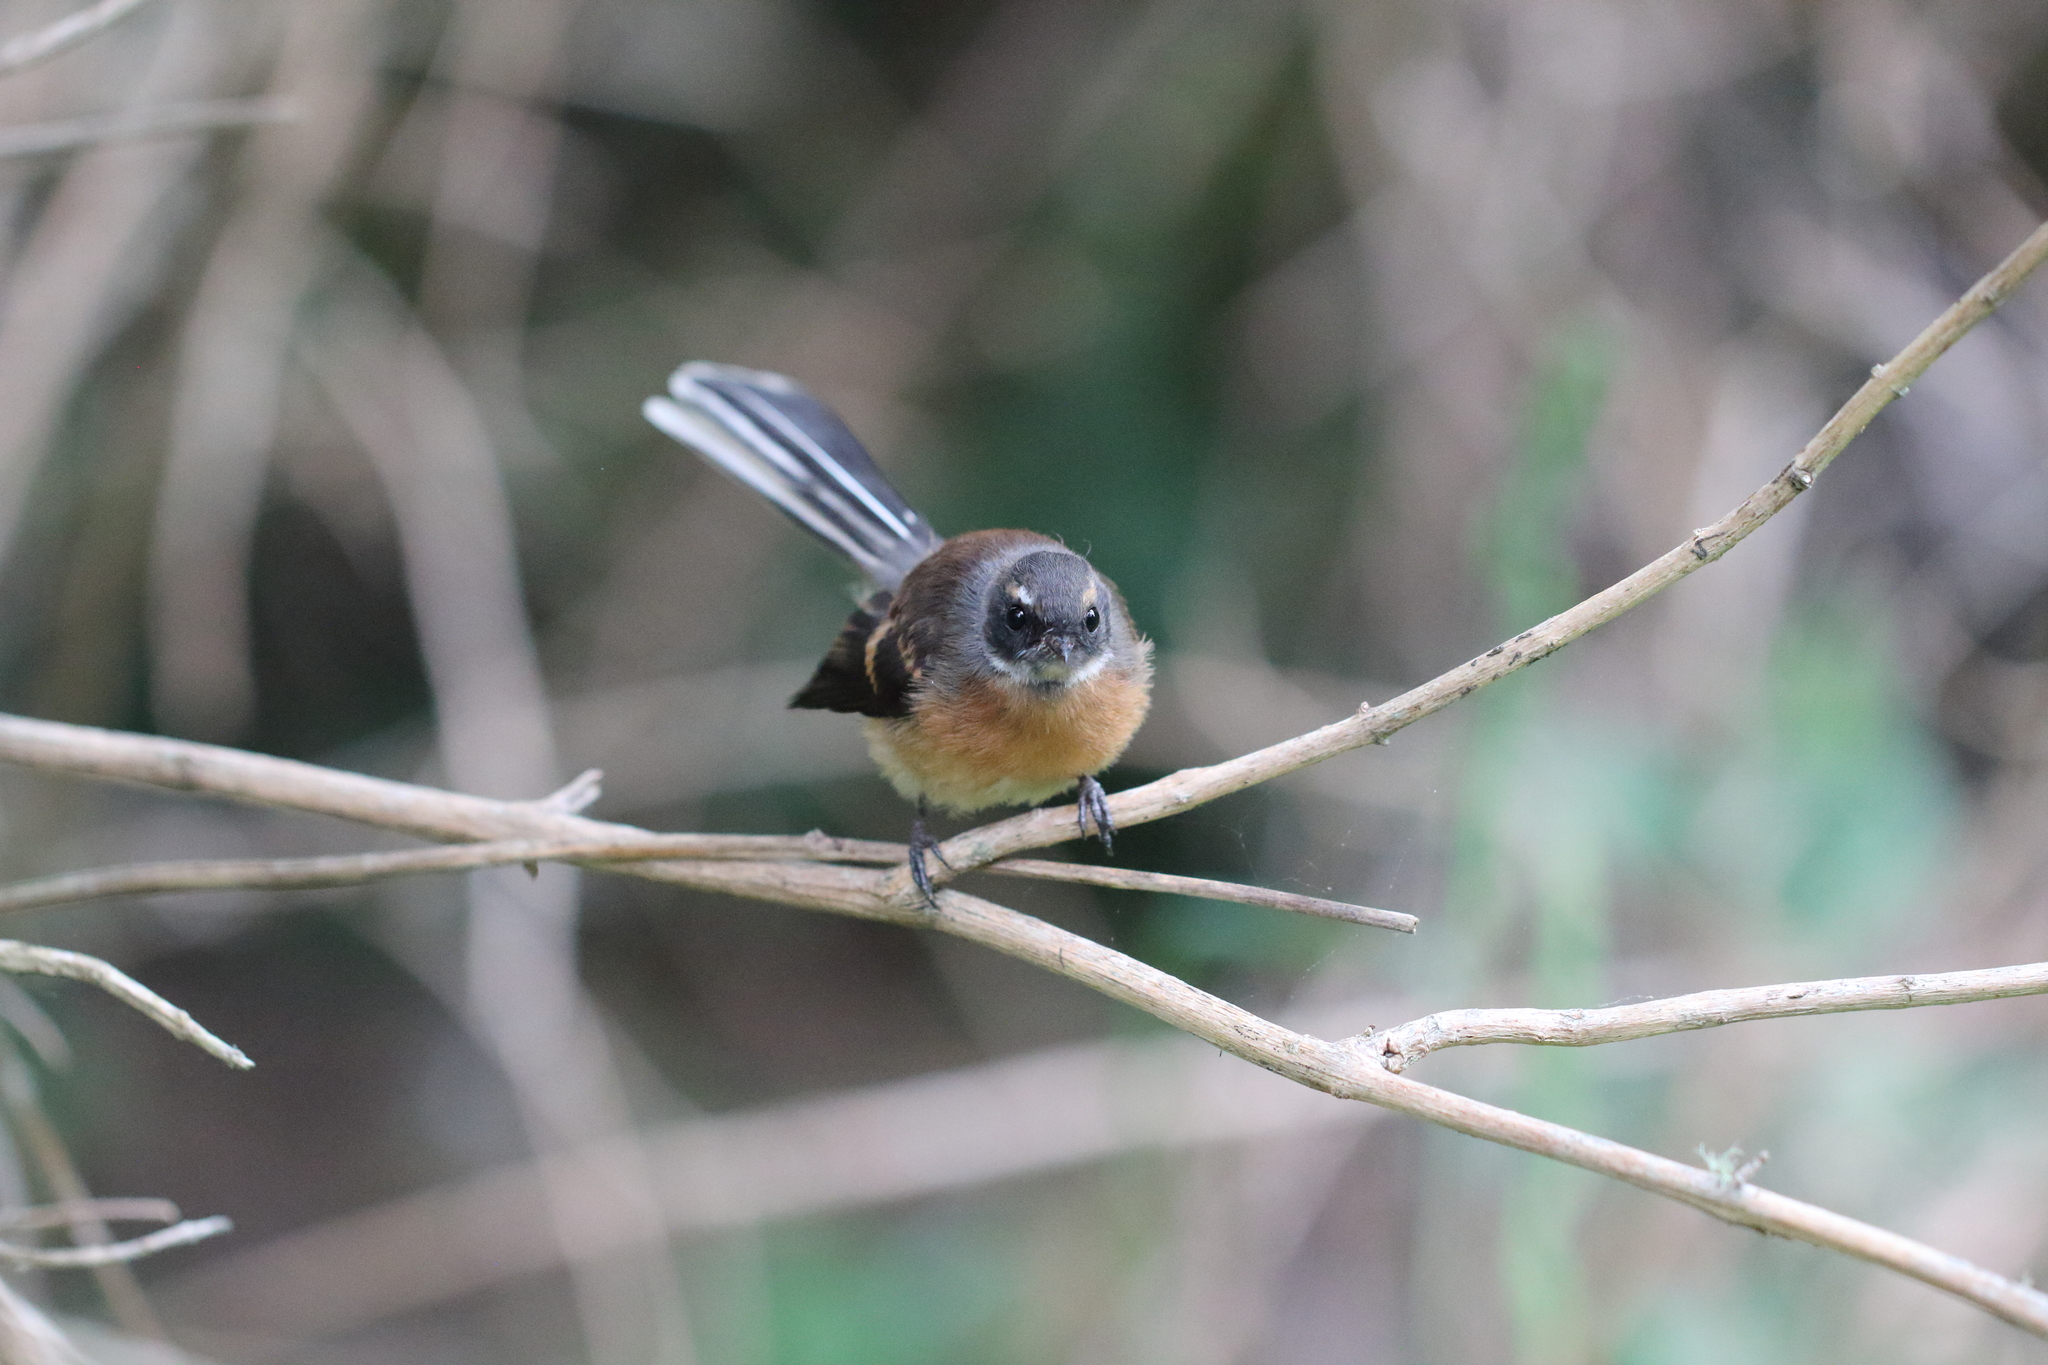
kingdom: Animalia
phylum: Chordata
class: Aves
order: Passeriformes
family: Rhipiduridae
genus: Rhipidura
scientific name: Rhipidura fuliginosa
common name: New zealand fantail
